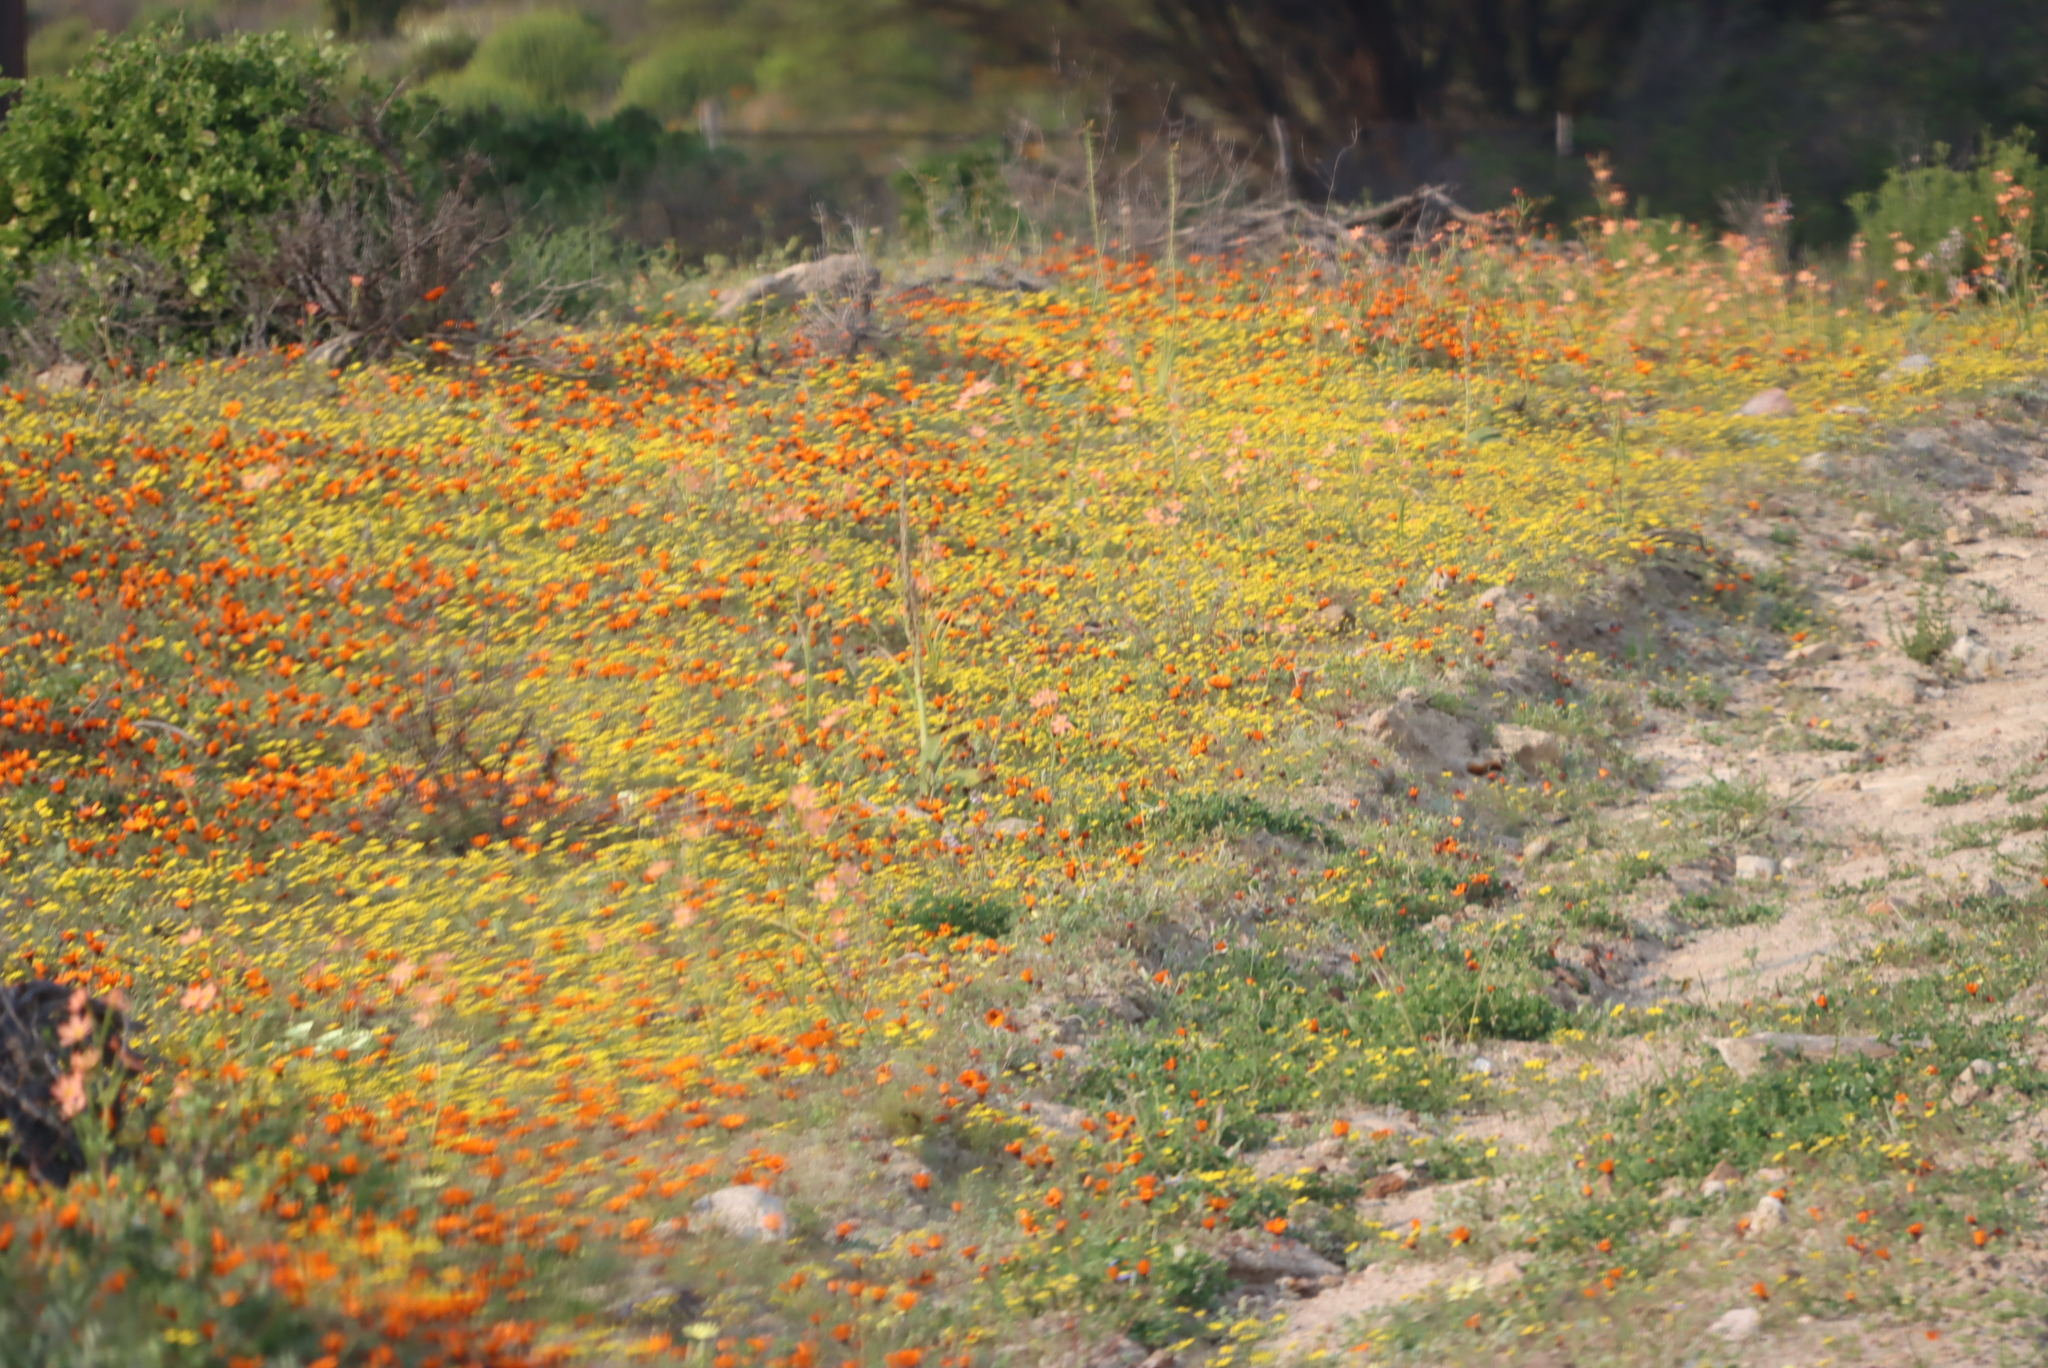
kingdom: Plantae
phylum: Tracheophyta
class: Magnoliopsida
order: Asterales
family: Asteraceae
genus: Dimorphotheca
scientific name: Dimorphotheca sinuata
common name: Glandular cape marigold
